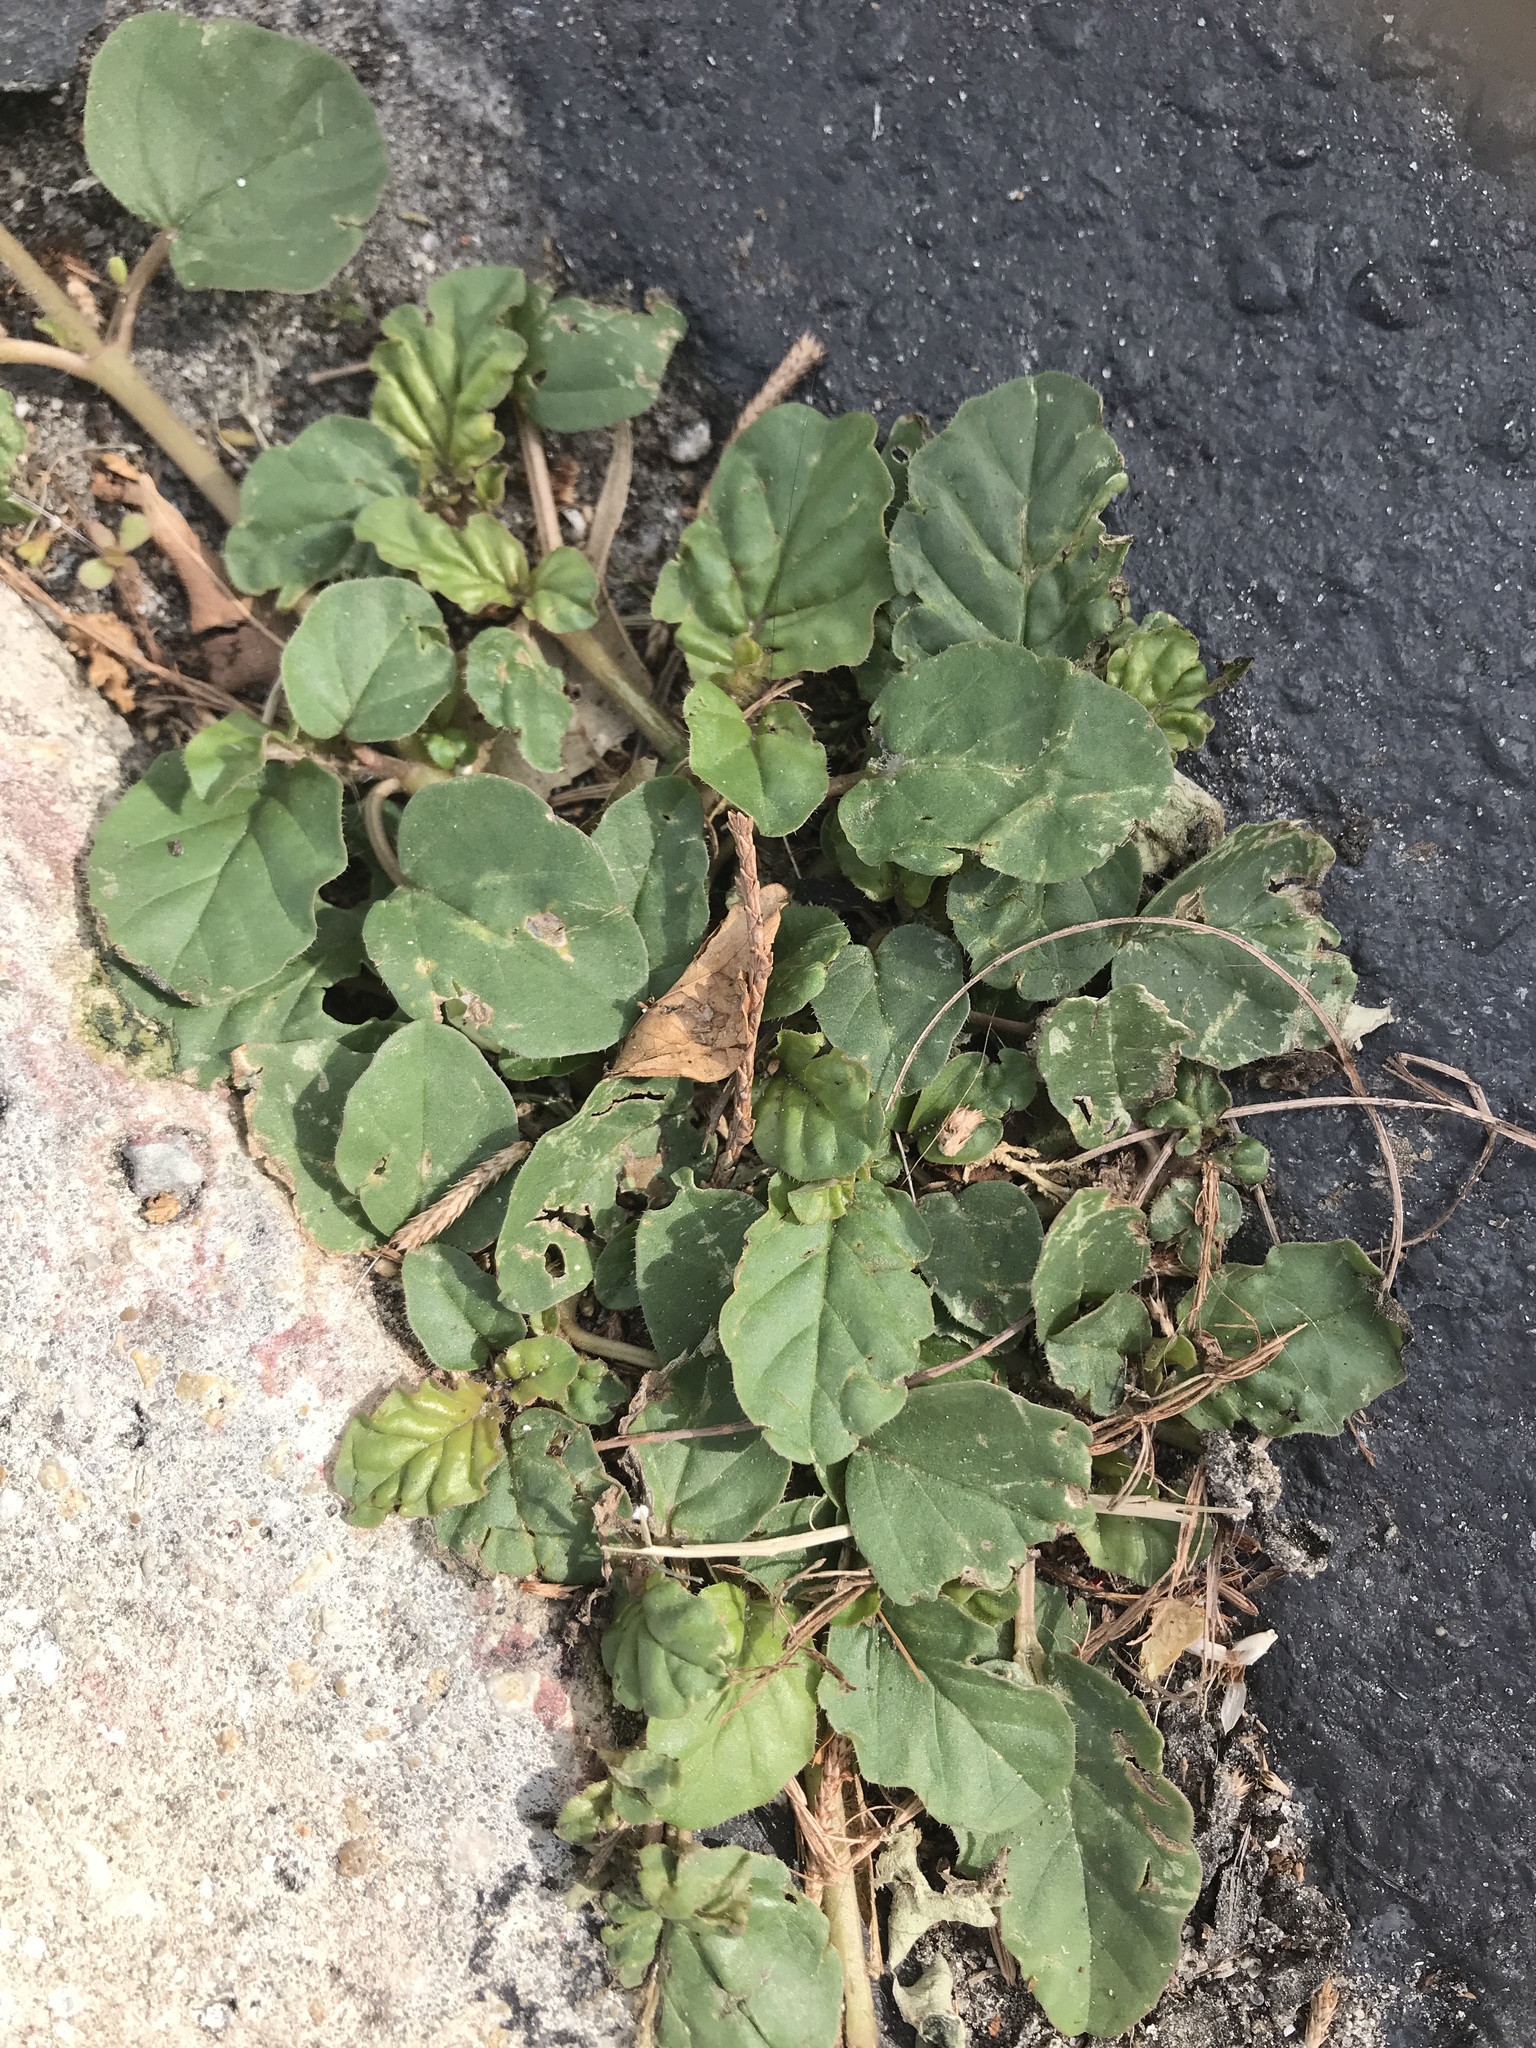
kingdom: Plantae
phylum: Tracheophyta
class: Magnoliopsida
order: Caryophyllales
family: Nyctaginaceae
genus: Boerhavia
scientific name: Boerhavia diffusa
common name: Red spiderling
